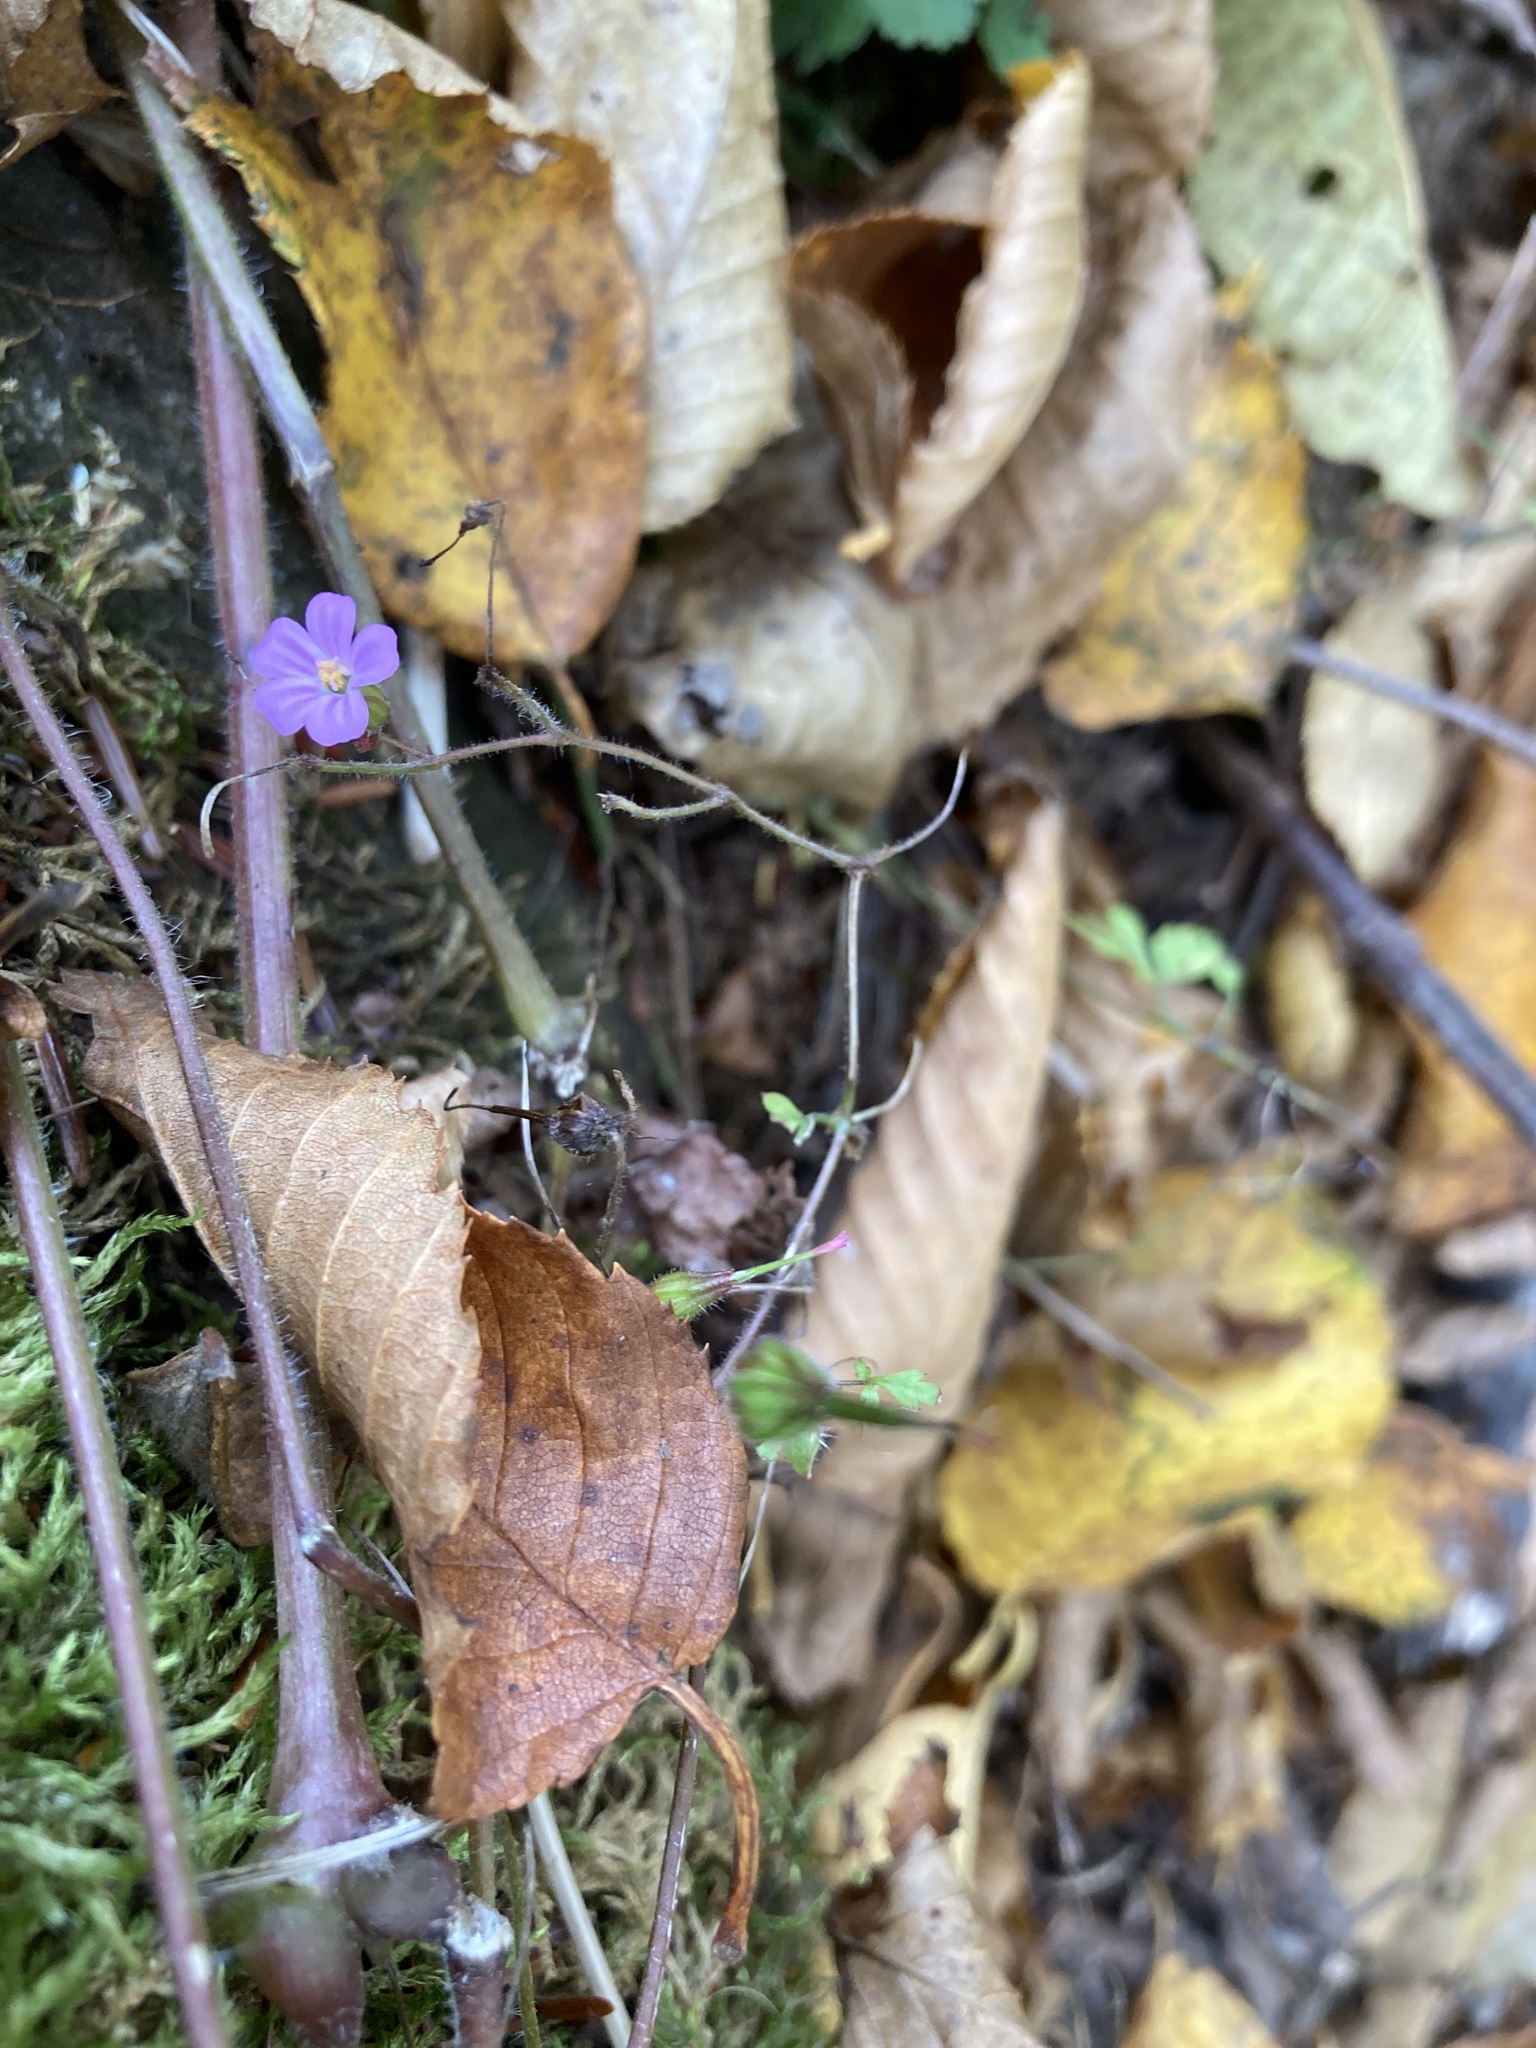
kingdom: Plantae
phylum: Tracheophyta
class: Magnoliopsida
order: Geraniales
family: Geraniaceae
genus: Geranium
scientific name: Geranium robertianum
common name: Herb-robert
